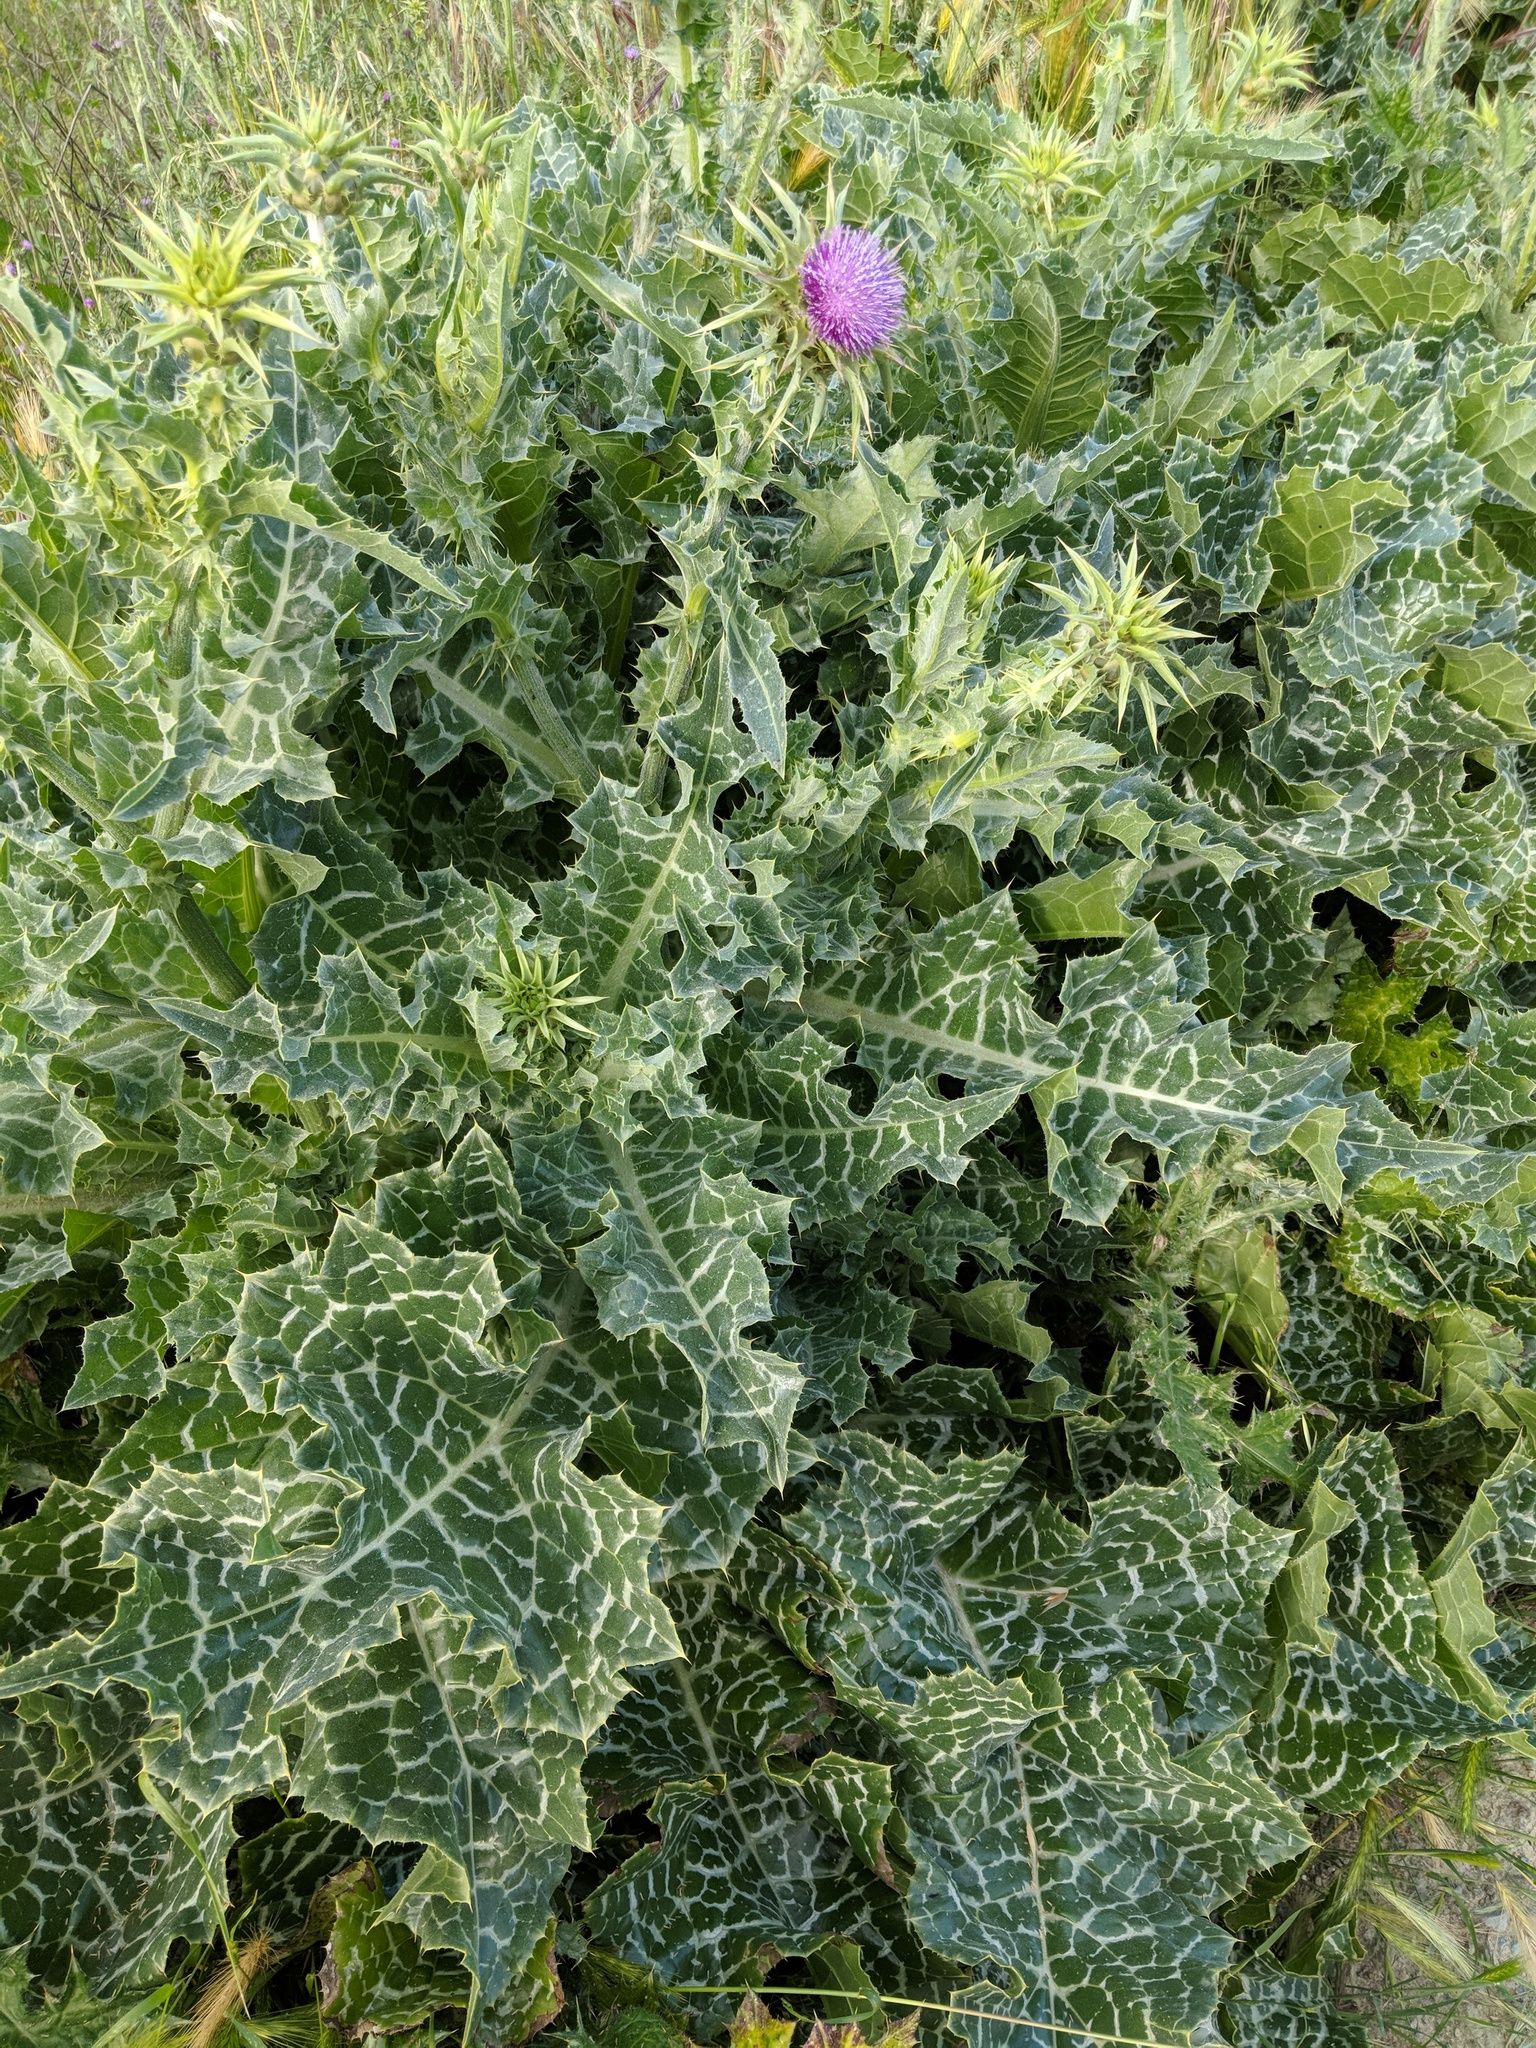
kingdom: Plantae
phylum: Tracheophyta
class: Magnoliopsida
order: Asterales
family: Asteraceae
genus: Silybum
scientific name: Silybum marianum
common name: Milk thistle
